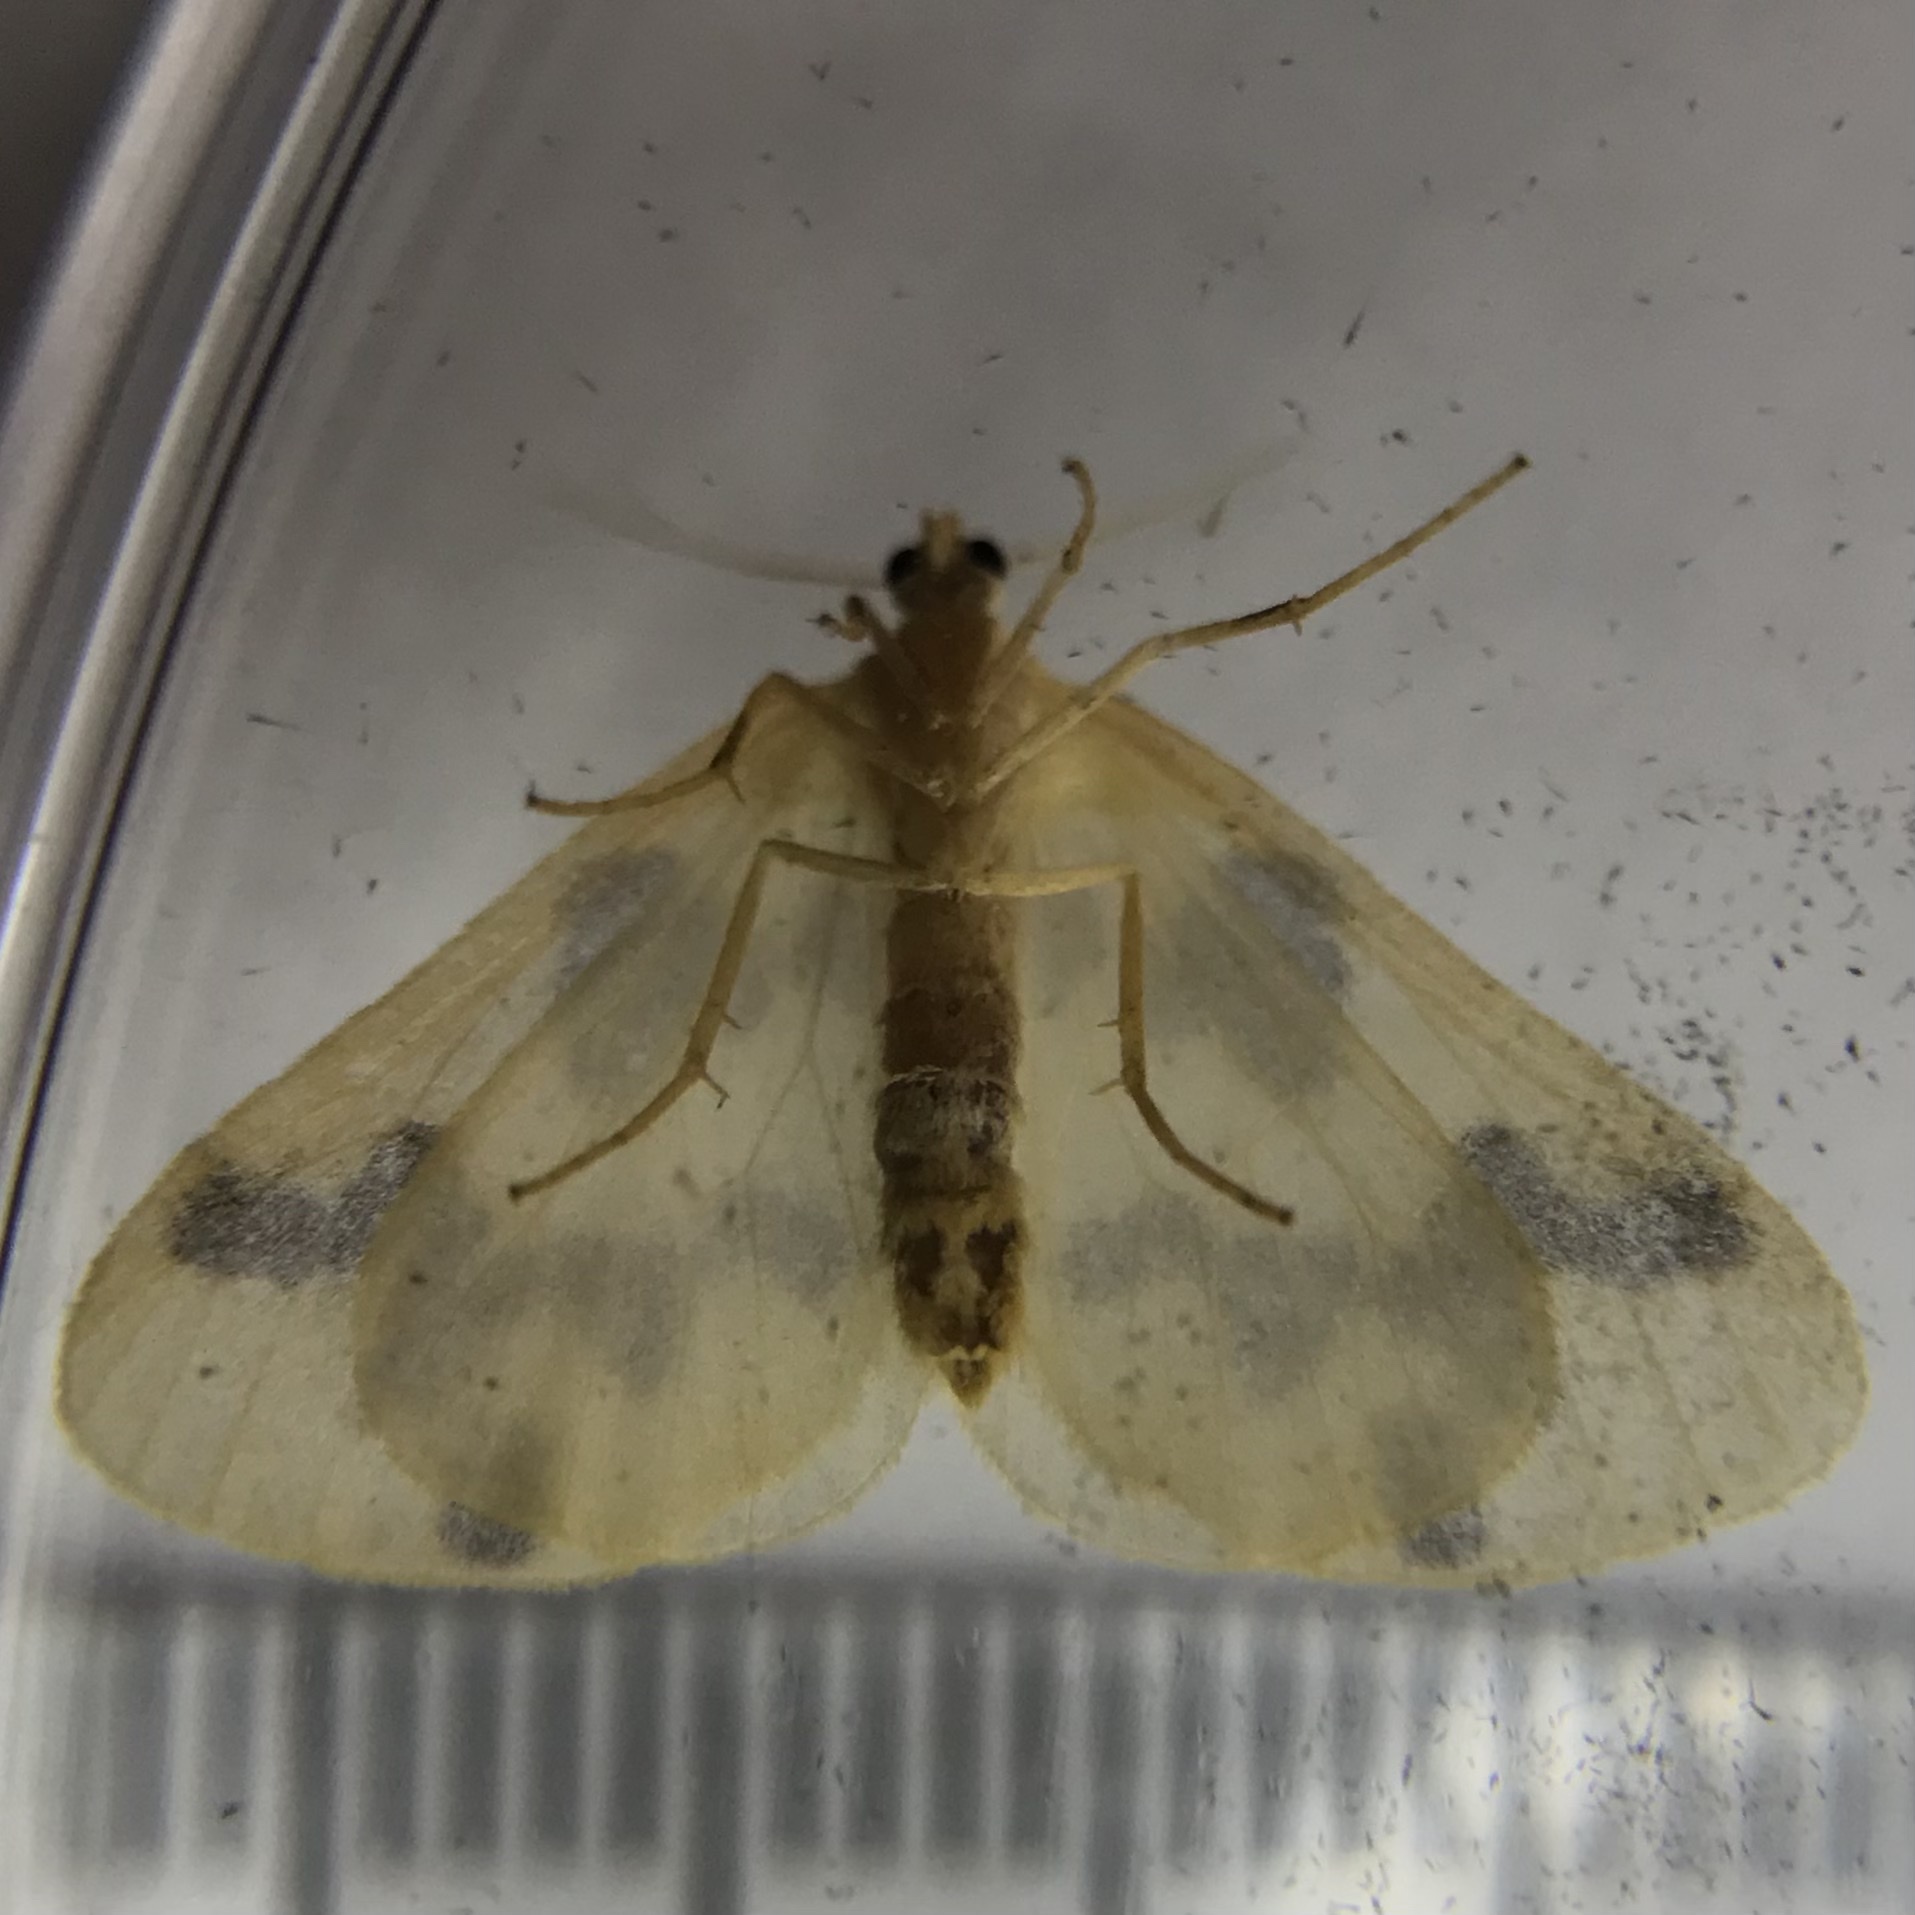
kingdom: Animalia
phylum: Arthropoda
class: Insecta
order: Lepidoptera
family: Geometridae
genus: Eubaphe
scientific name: Eubaphe mendica
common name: Beggar
